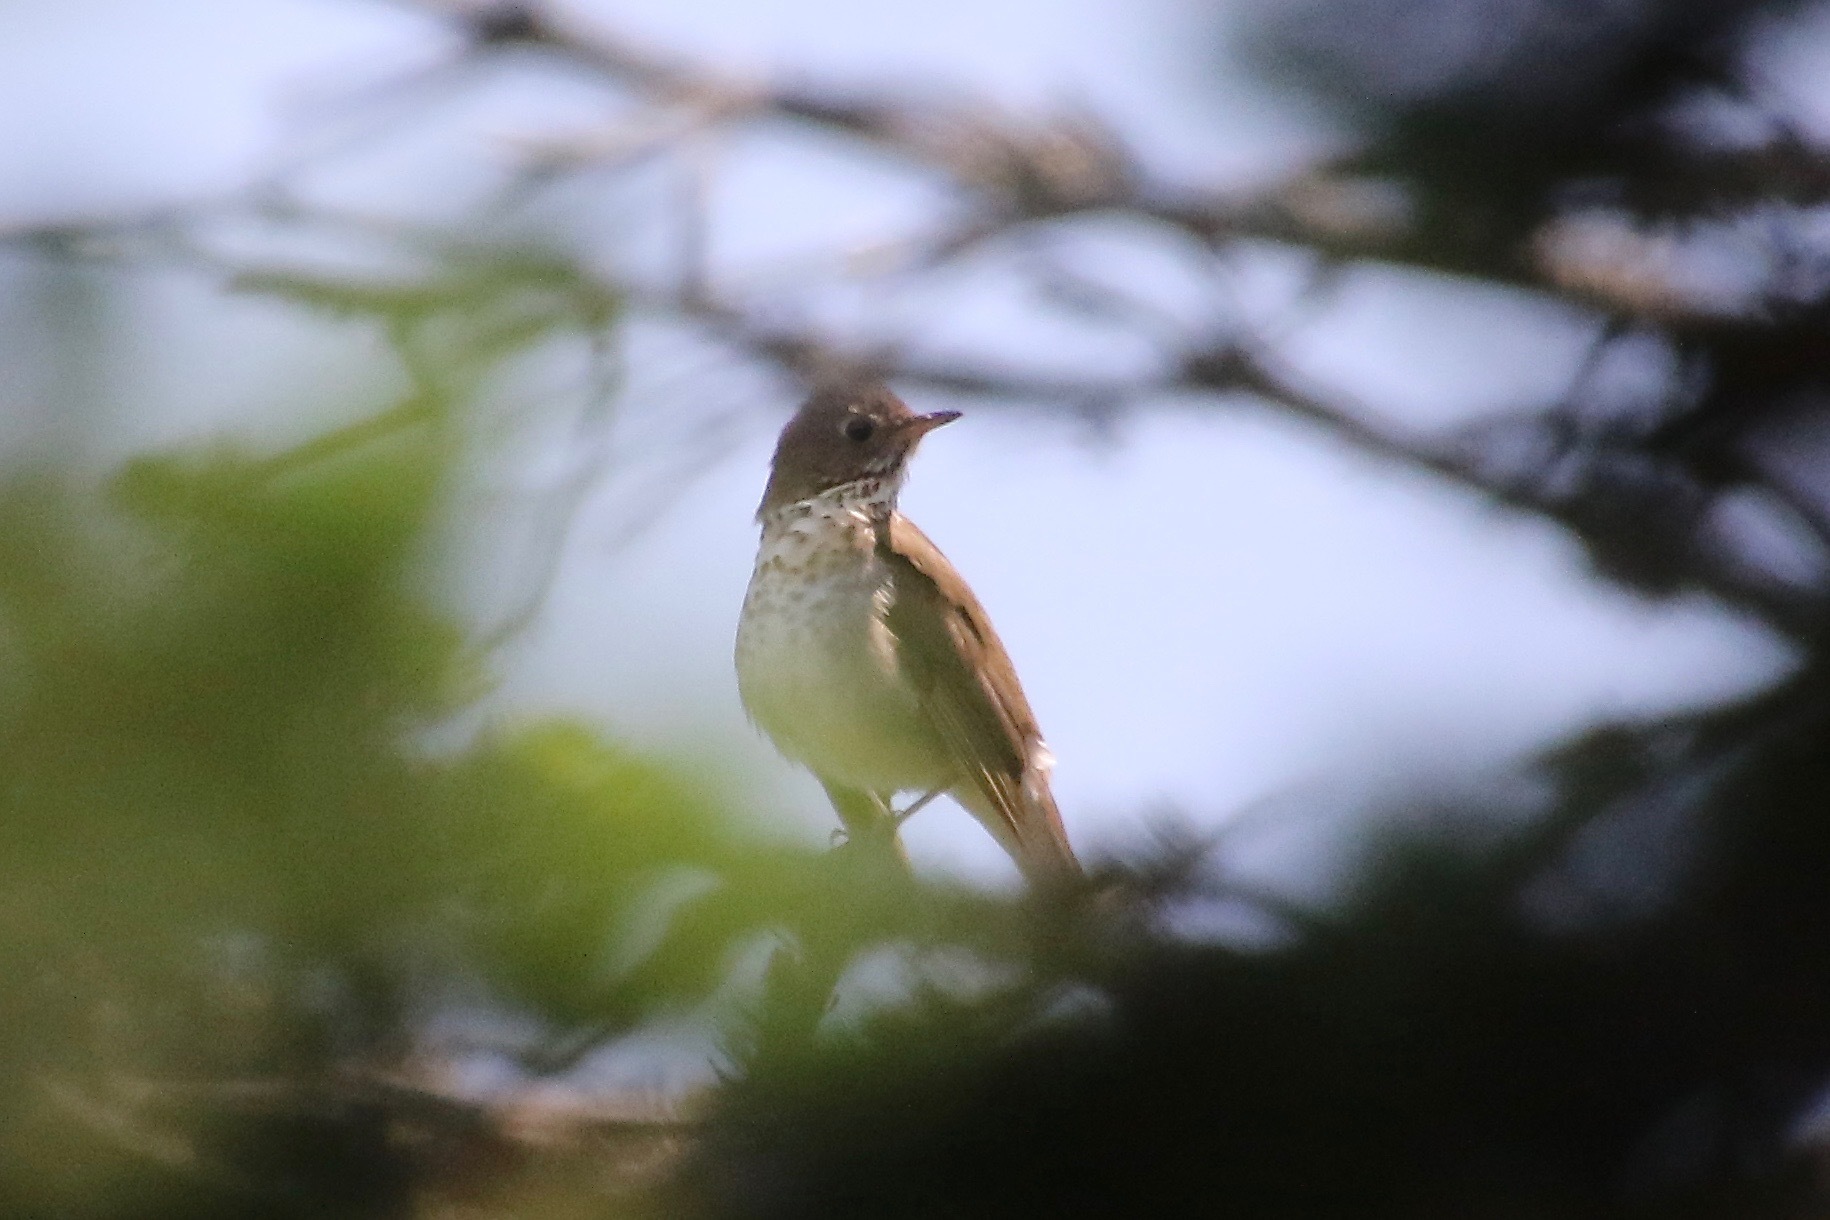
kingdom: Animalia
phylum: Chordata
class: Aves
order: Passeriformes
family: Turdidae
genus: Catharus
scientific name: Catharus bicknelli
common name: Bicknell's thrush
